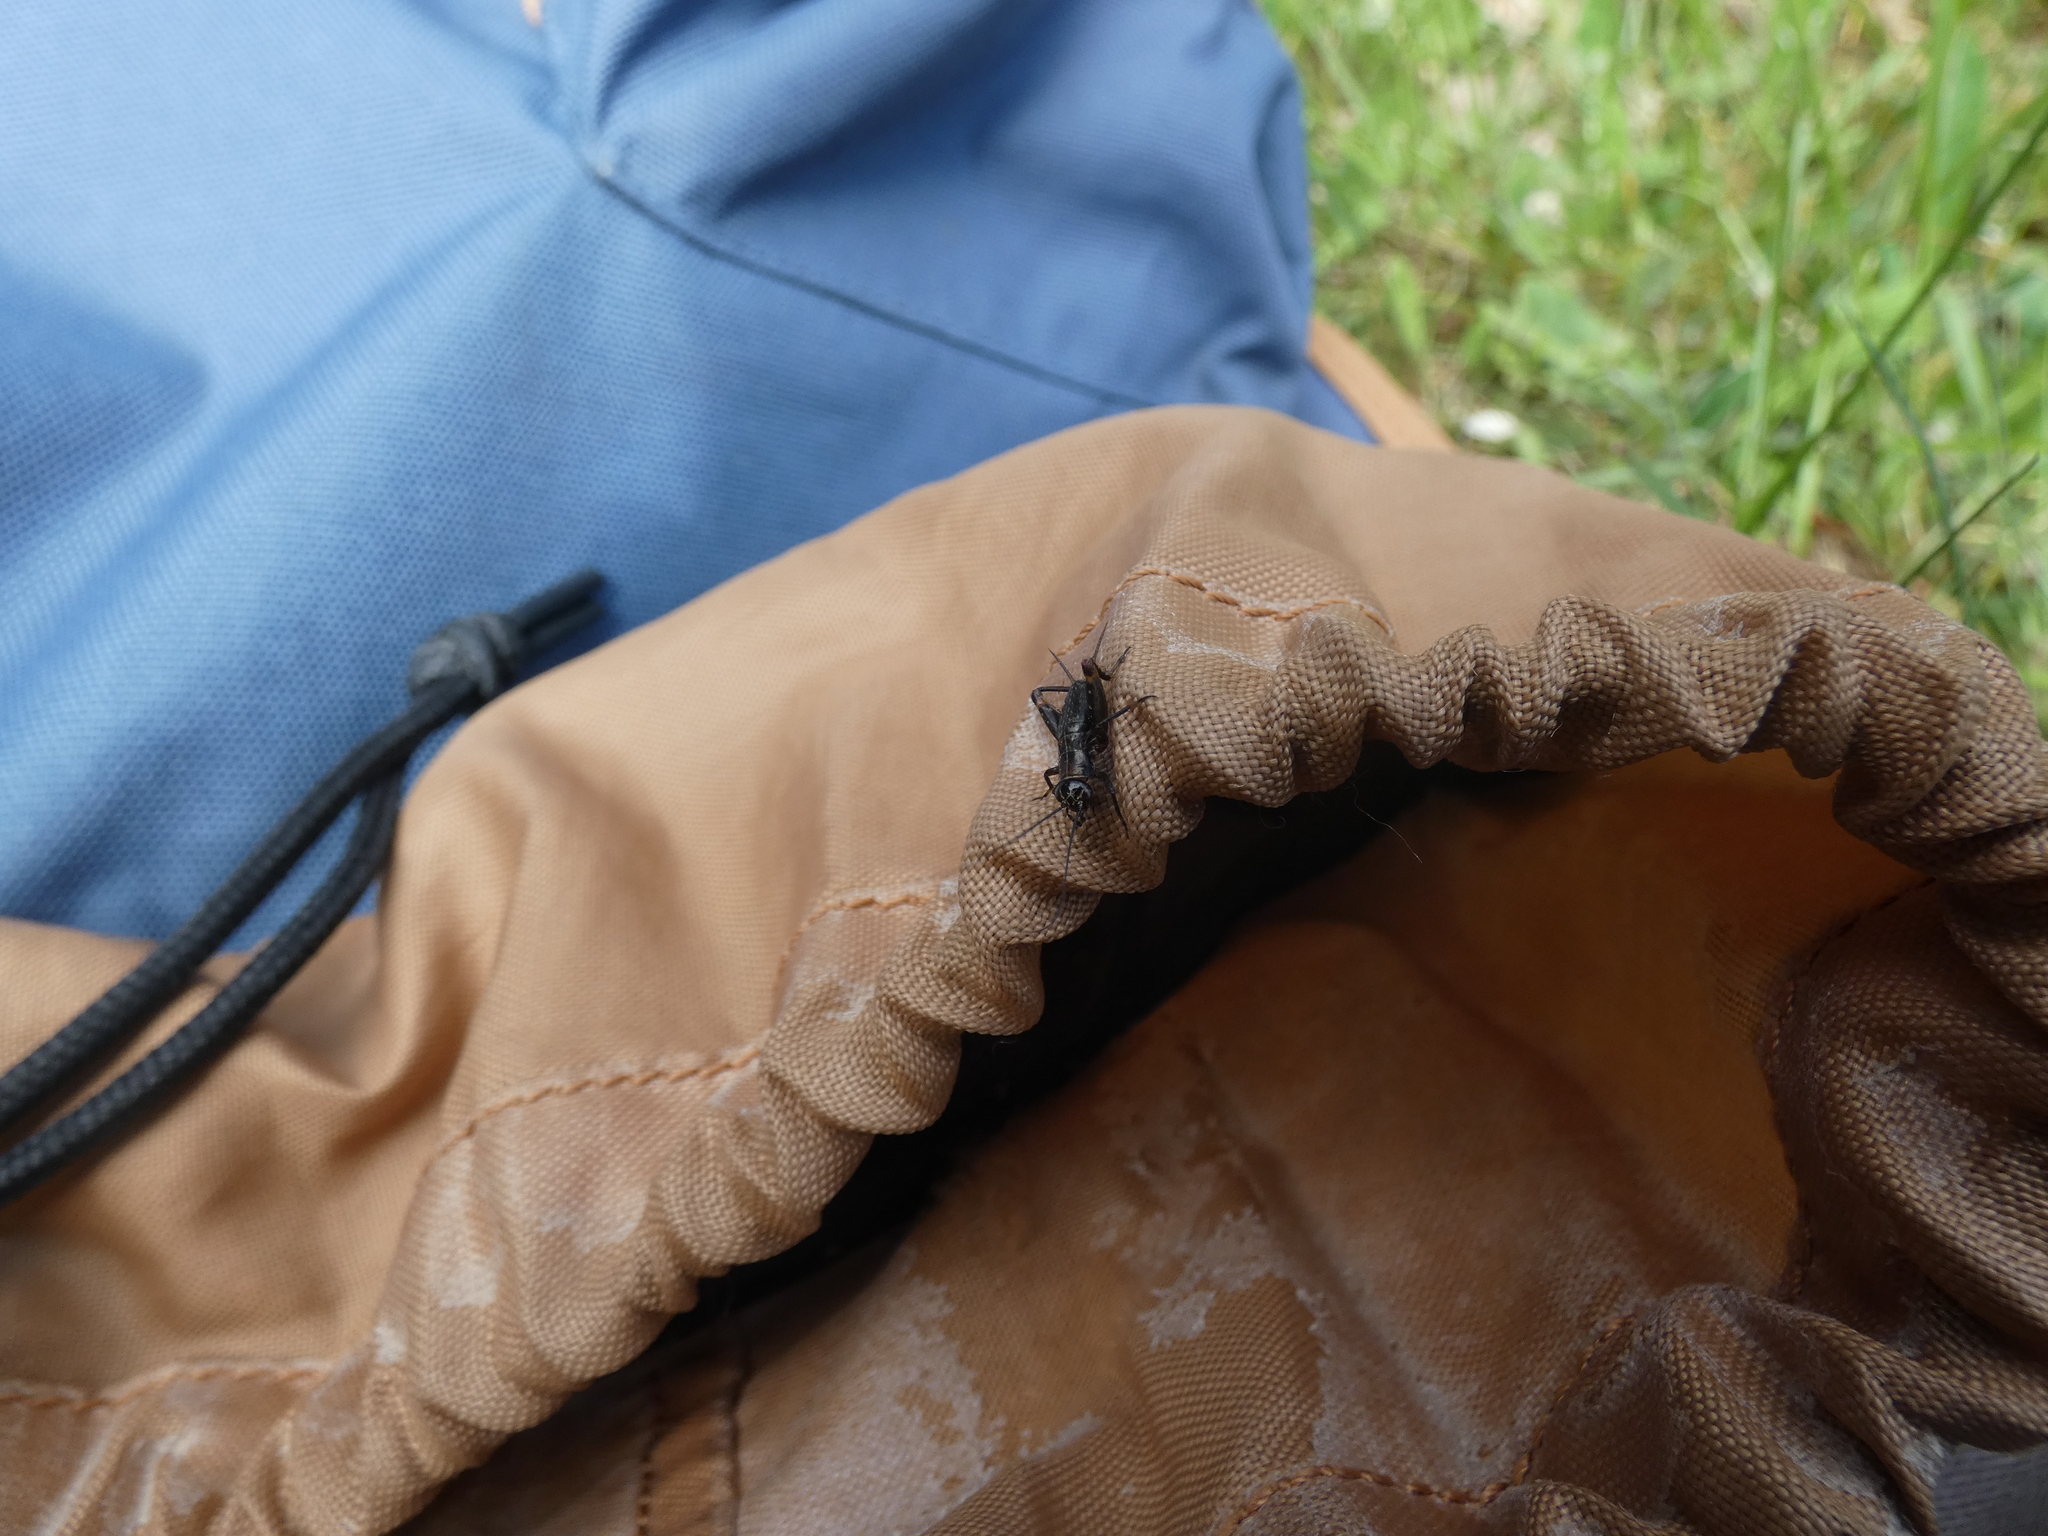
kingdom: Animalia
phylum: Arthropoda
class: Insecta
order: Orthoptera
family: Trigonidiidae
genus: Nemobius
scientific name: Nemobius sylvestris
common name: Wood-cricket
